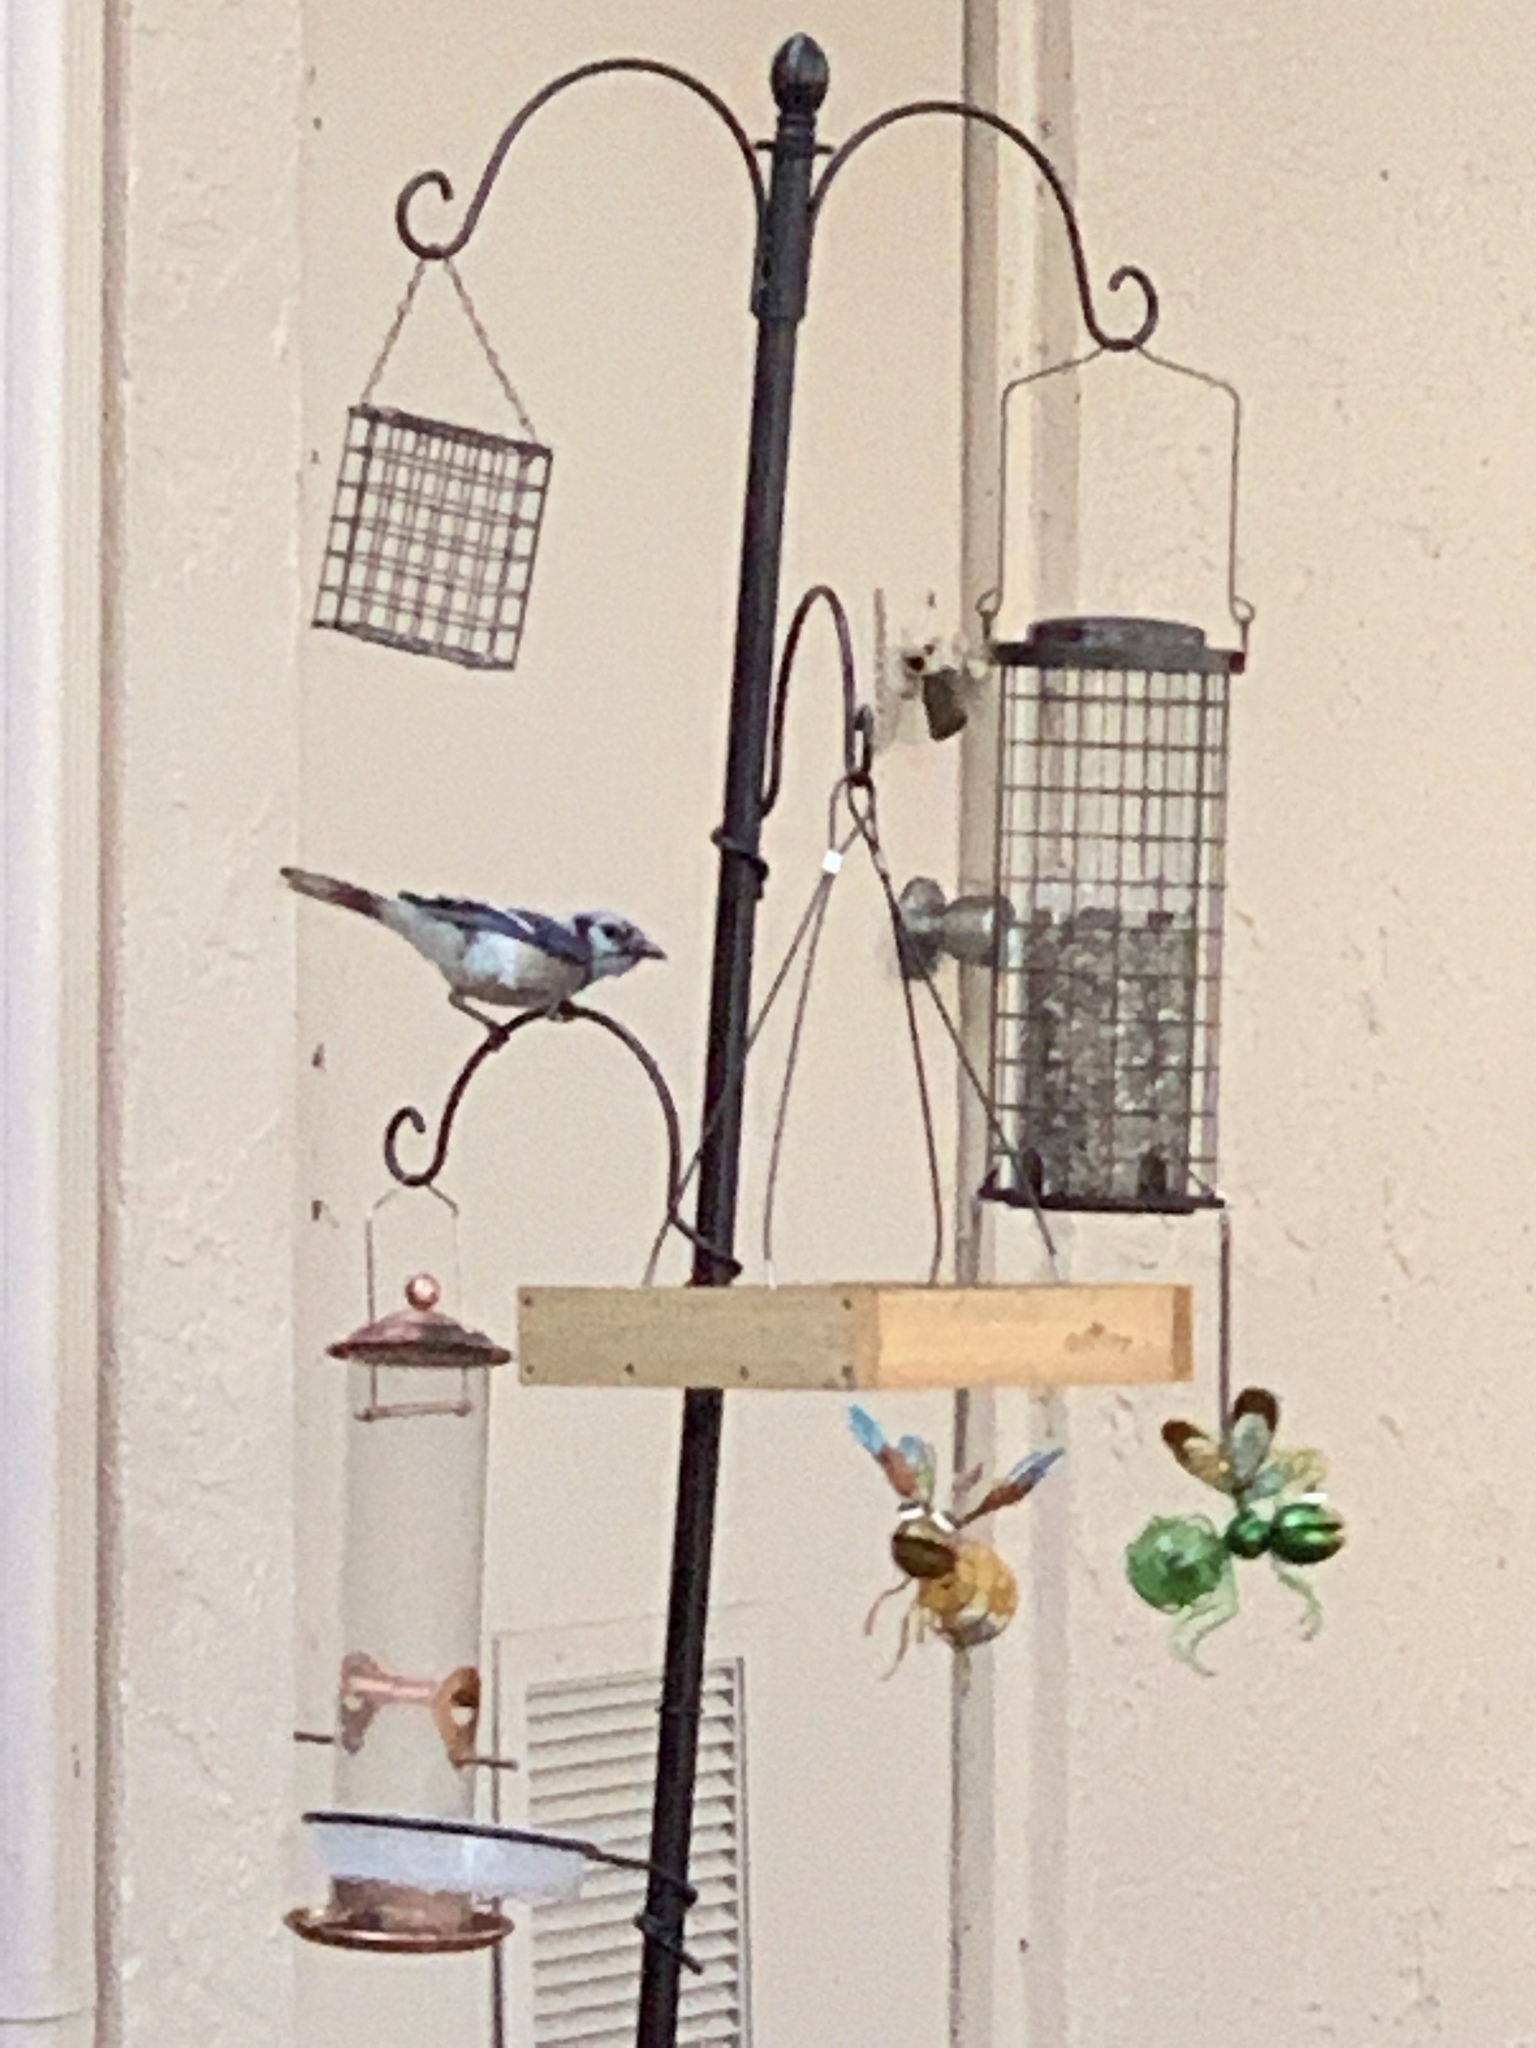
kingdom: Animalia
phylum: Chordata
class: Aves
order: Passeriformes
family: Corvidae
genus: Cyanocitta
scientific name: Cyanocitta cristata
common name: Blue jay
